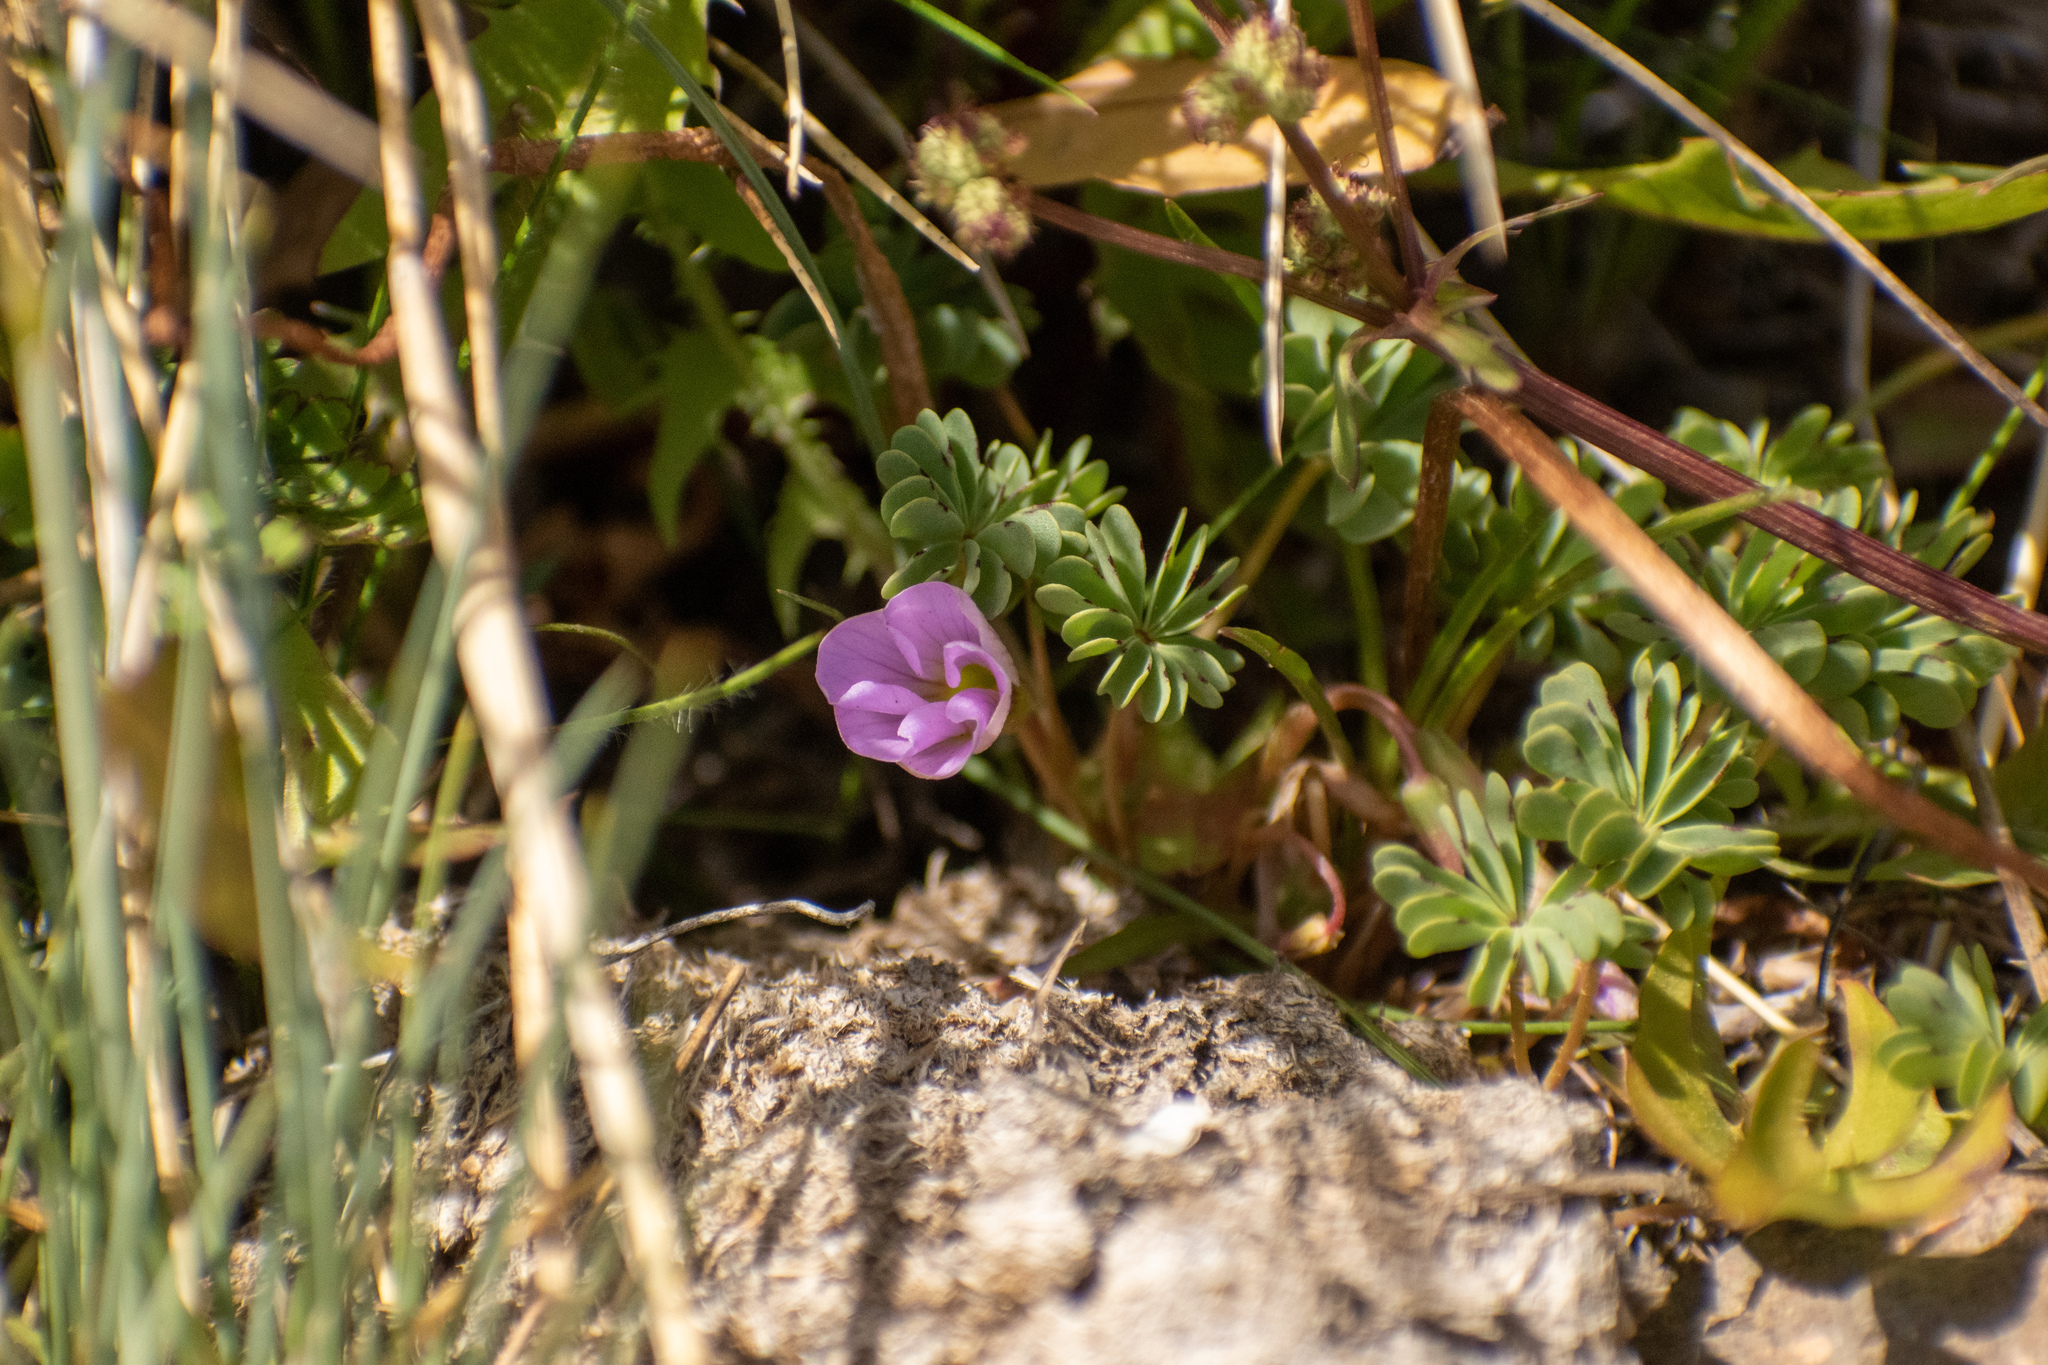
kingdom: Plantae
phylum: Tracheophyta
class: Magnoliopsida
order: Oxalidales
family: Oxalidaceae
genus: Oxalis
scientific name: Oxalis adenophylla
